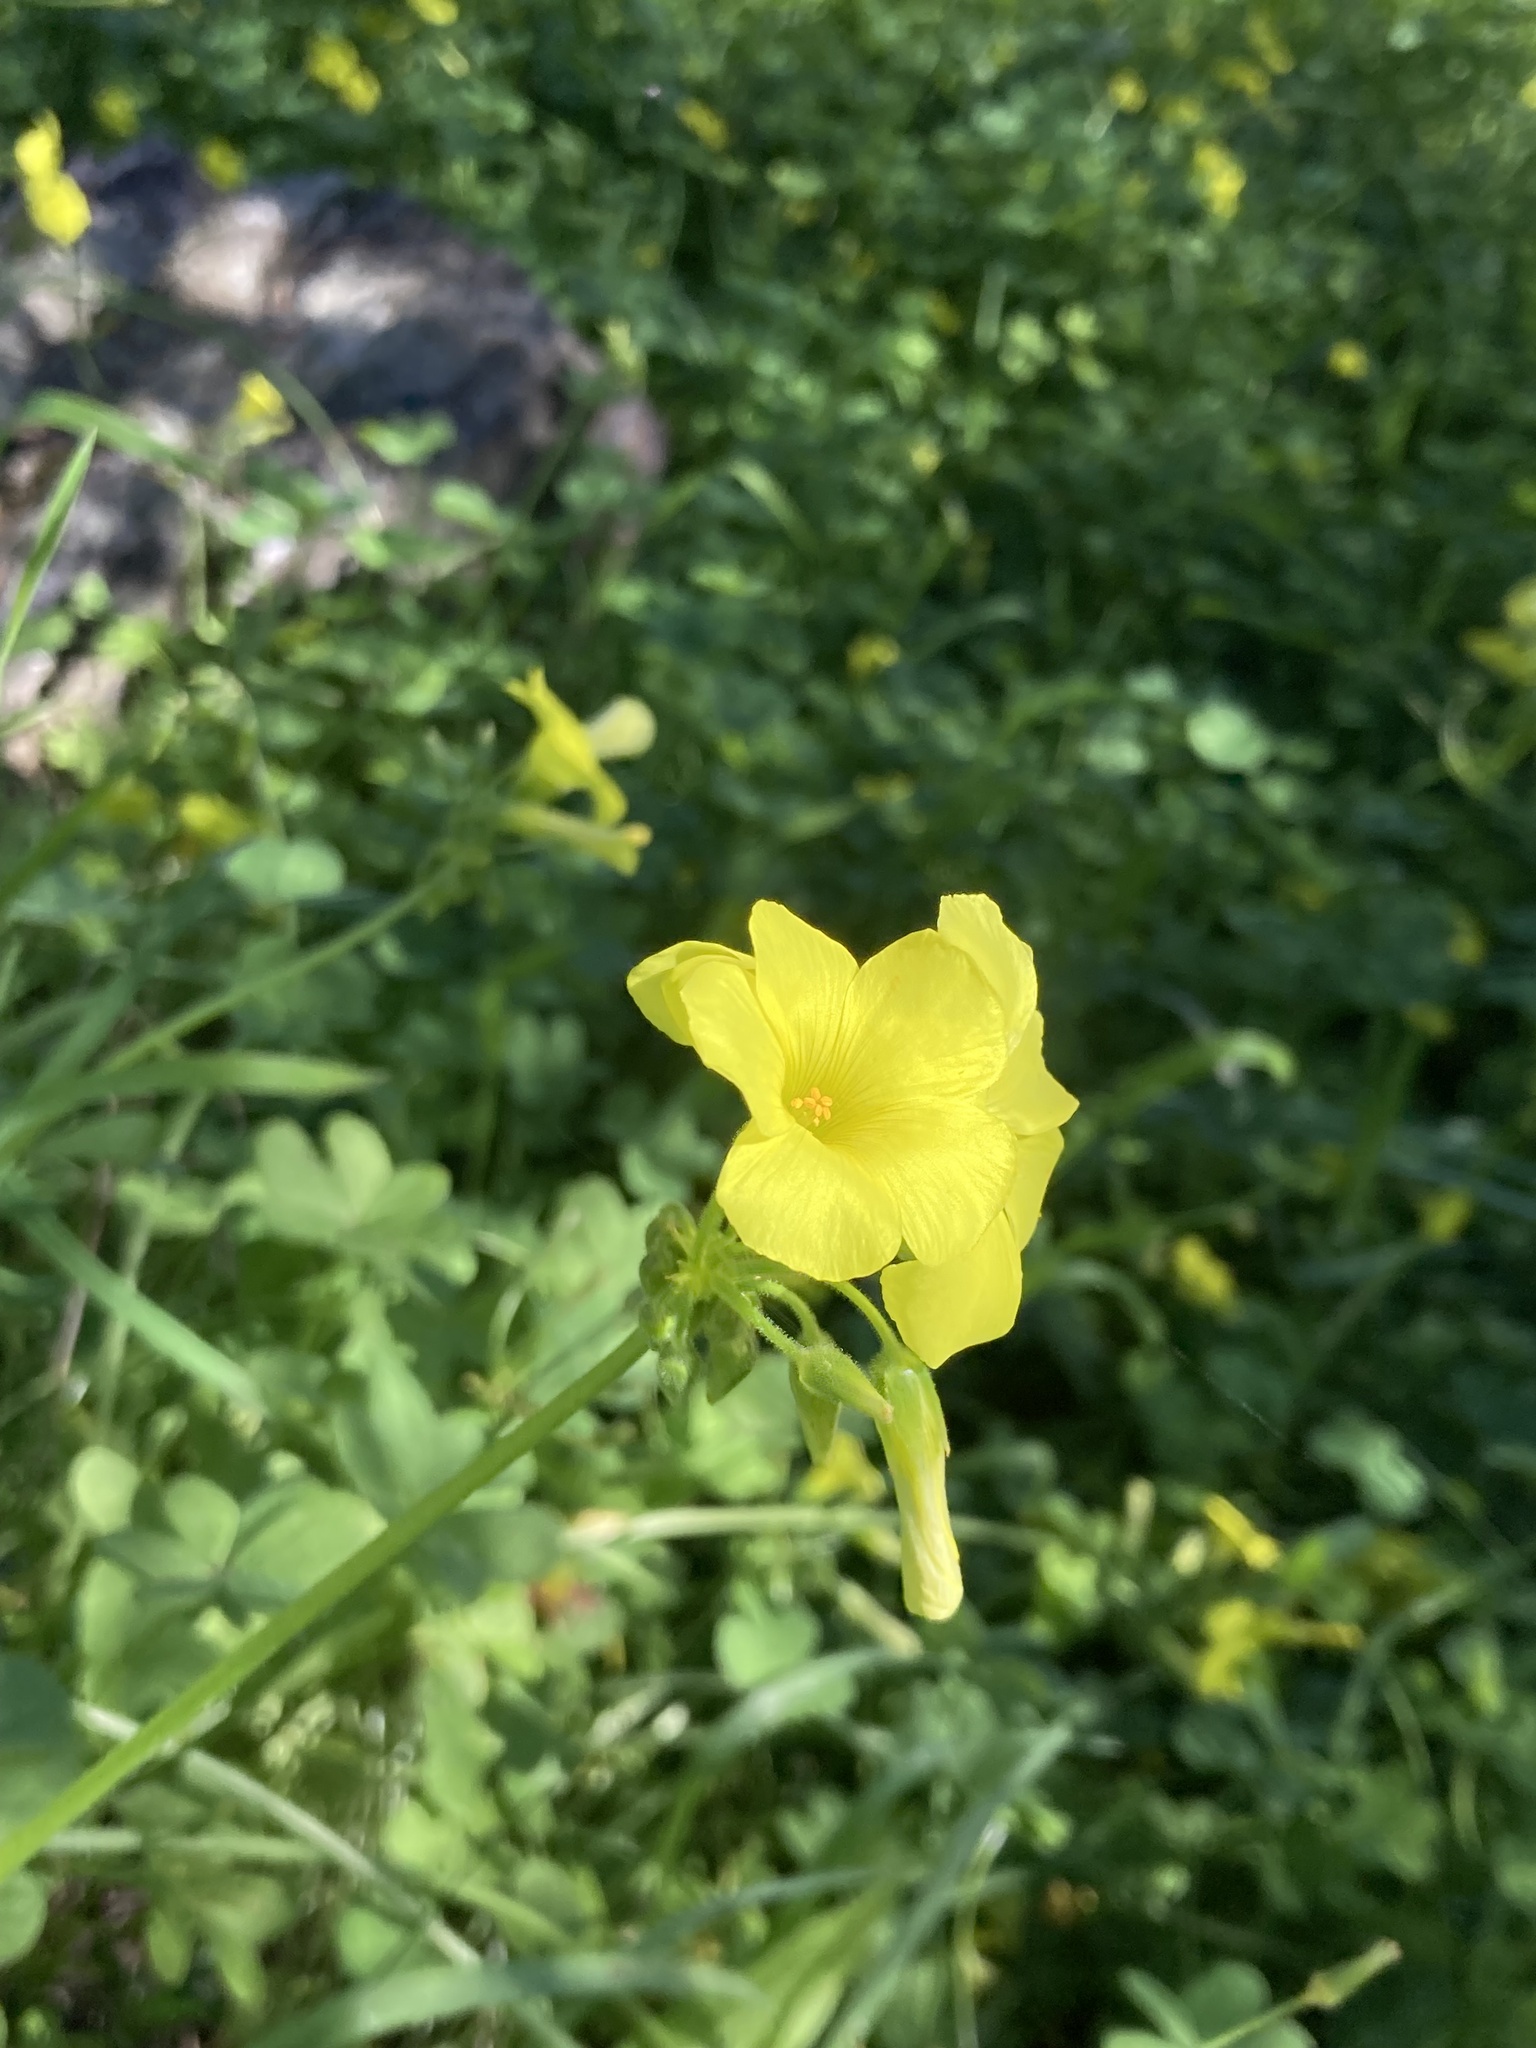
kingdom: Plantae
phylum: Tracheophyta
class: Magnoliopsida
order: Oxalidales
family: Oxalidaceae
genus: Oxalis
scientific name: Oxalis pes-caprae
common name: Bermuda-buttercup
